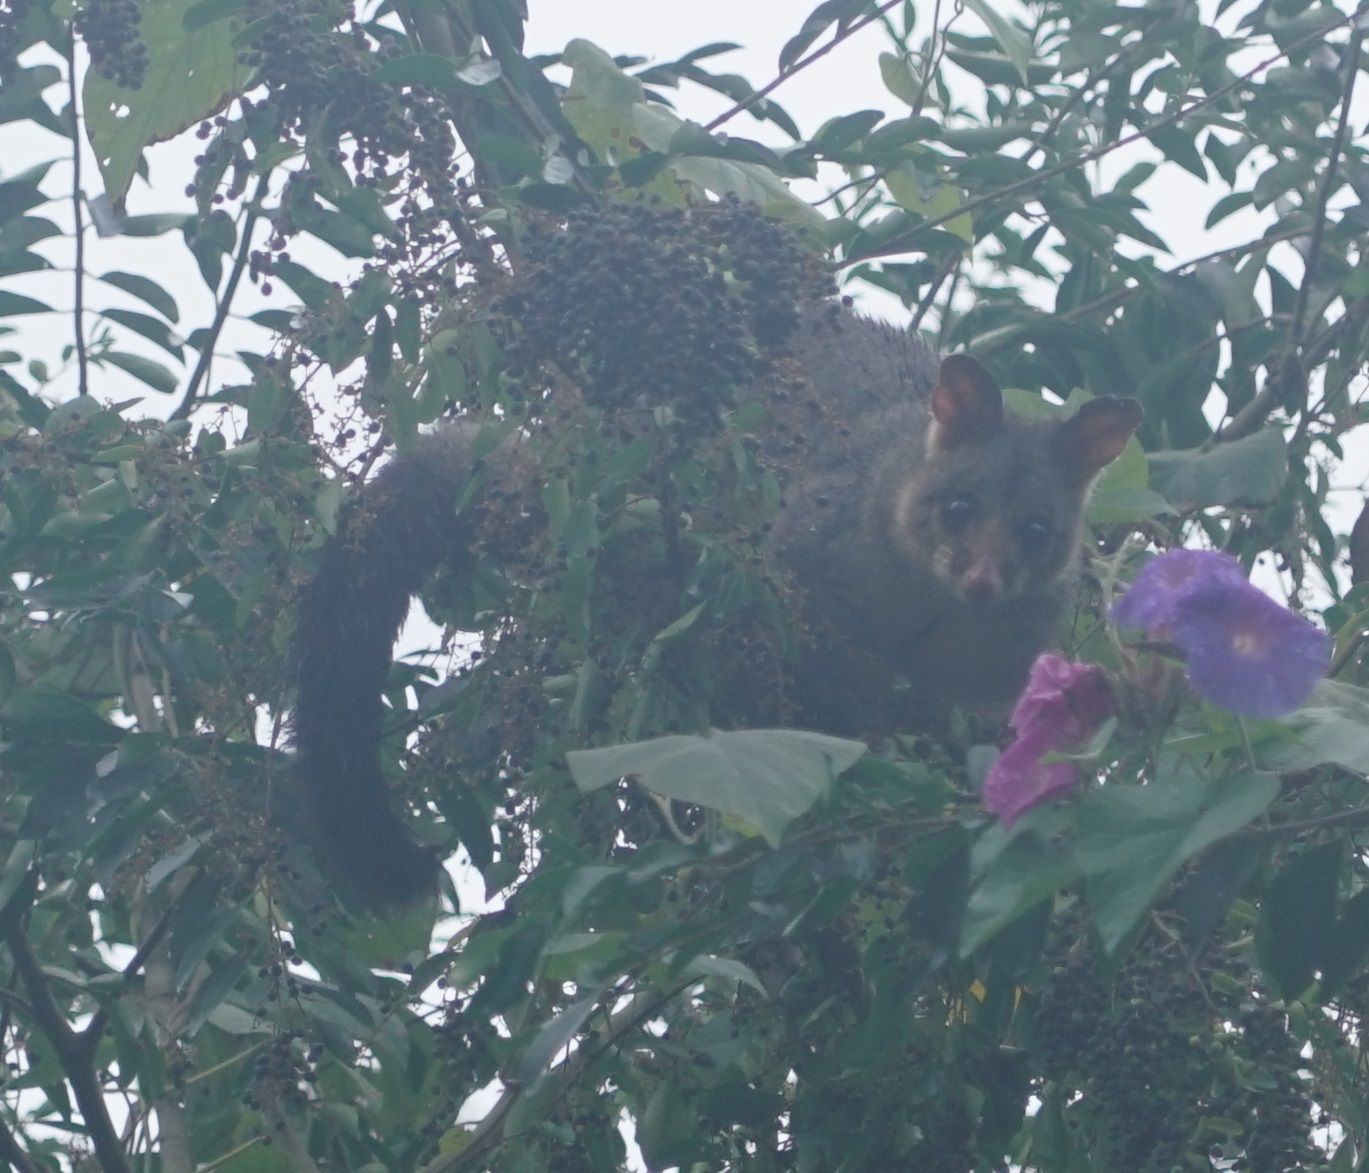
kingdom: Animalia
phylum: Chordata
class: Mammalia
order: Diprotodontia
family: Phalangeridae
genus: Trichosurus
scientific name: Trichosurus vulpecula
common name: Common brushtail
